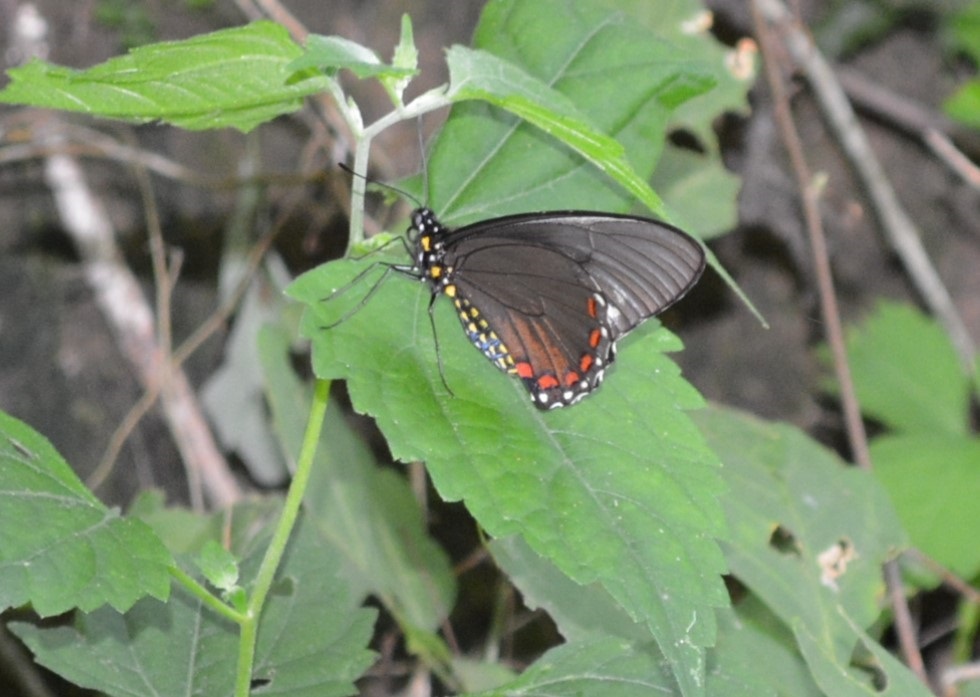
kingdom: Animalia
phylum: Arthropoda
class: Insecta
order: Lepidoptera
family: Papilionidae
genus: Battus
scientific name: Battus ingenuus
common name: Confused swallowtail
